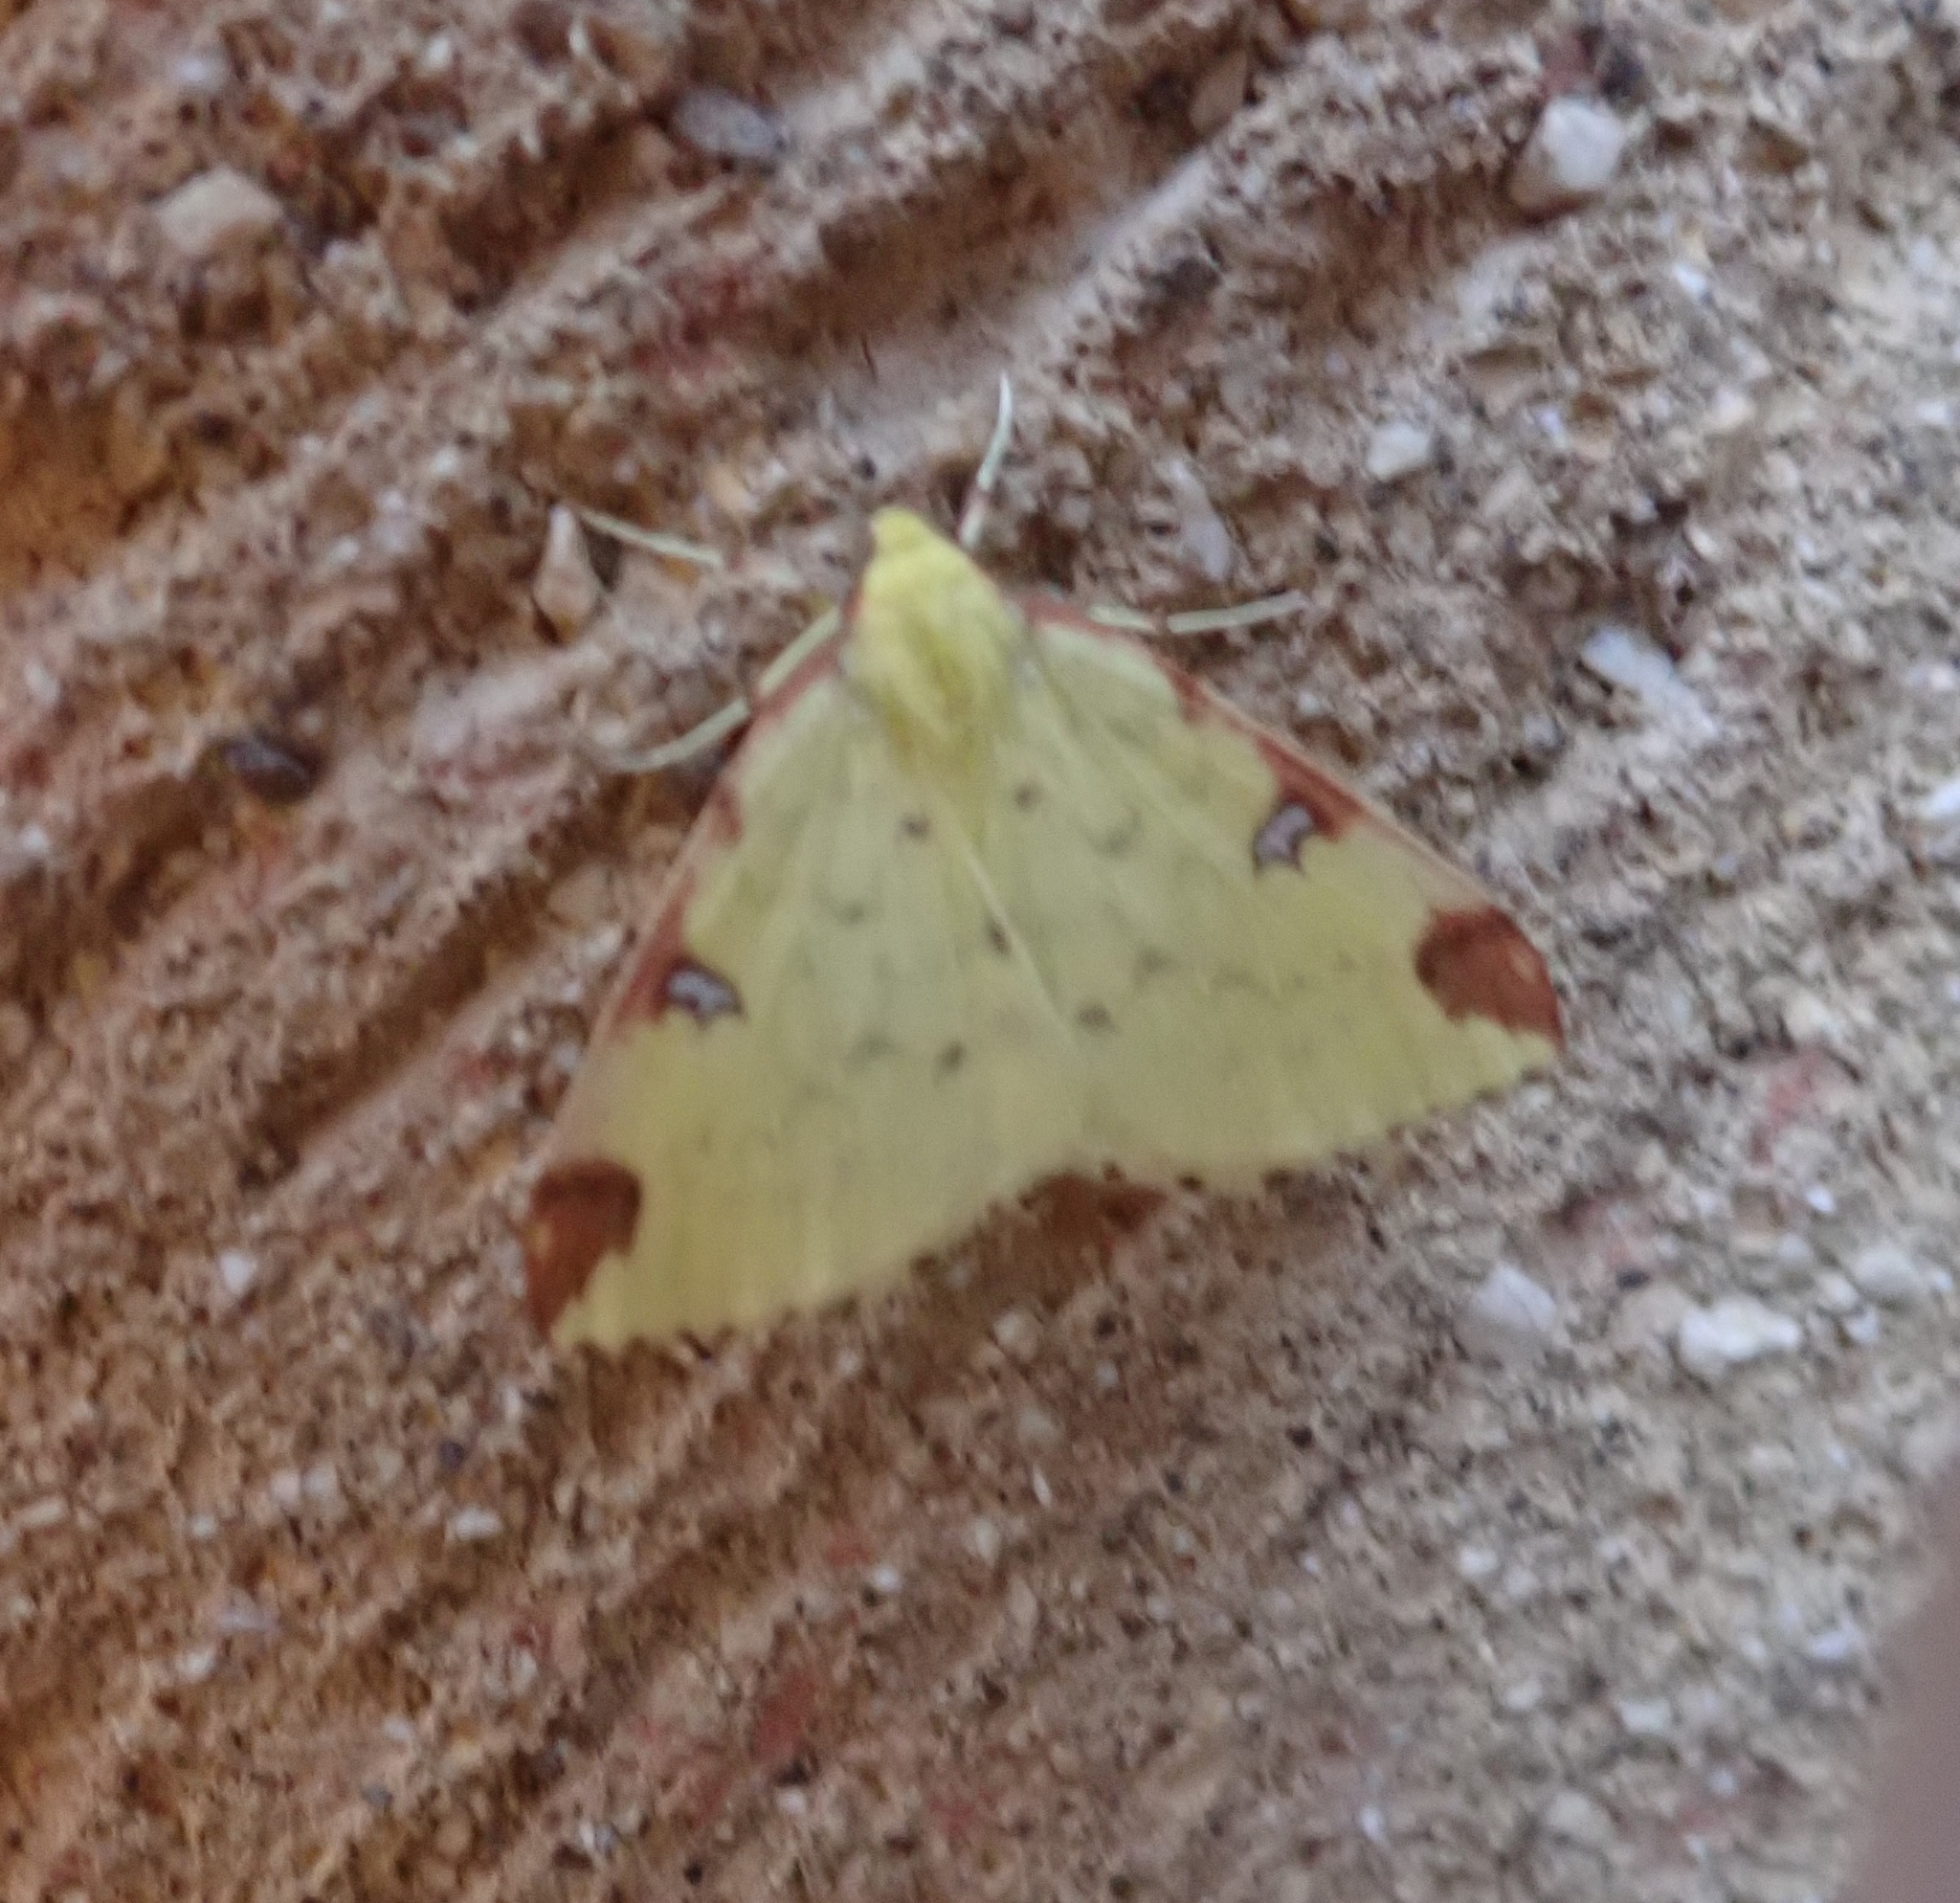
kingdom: Animalia
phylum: Arthropoda
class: Insecta
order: Lepidoptera
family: Geometridae
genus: Opisthograptis
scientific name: Opisthograptis luteolata
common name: Brimstone moth
